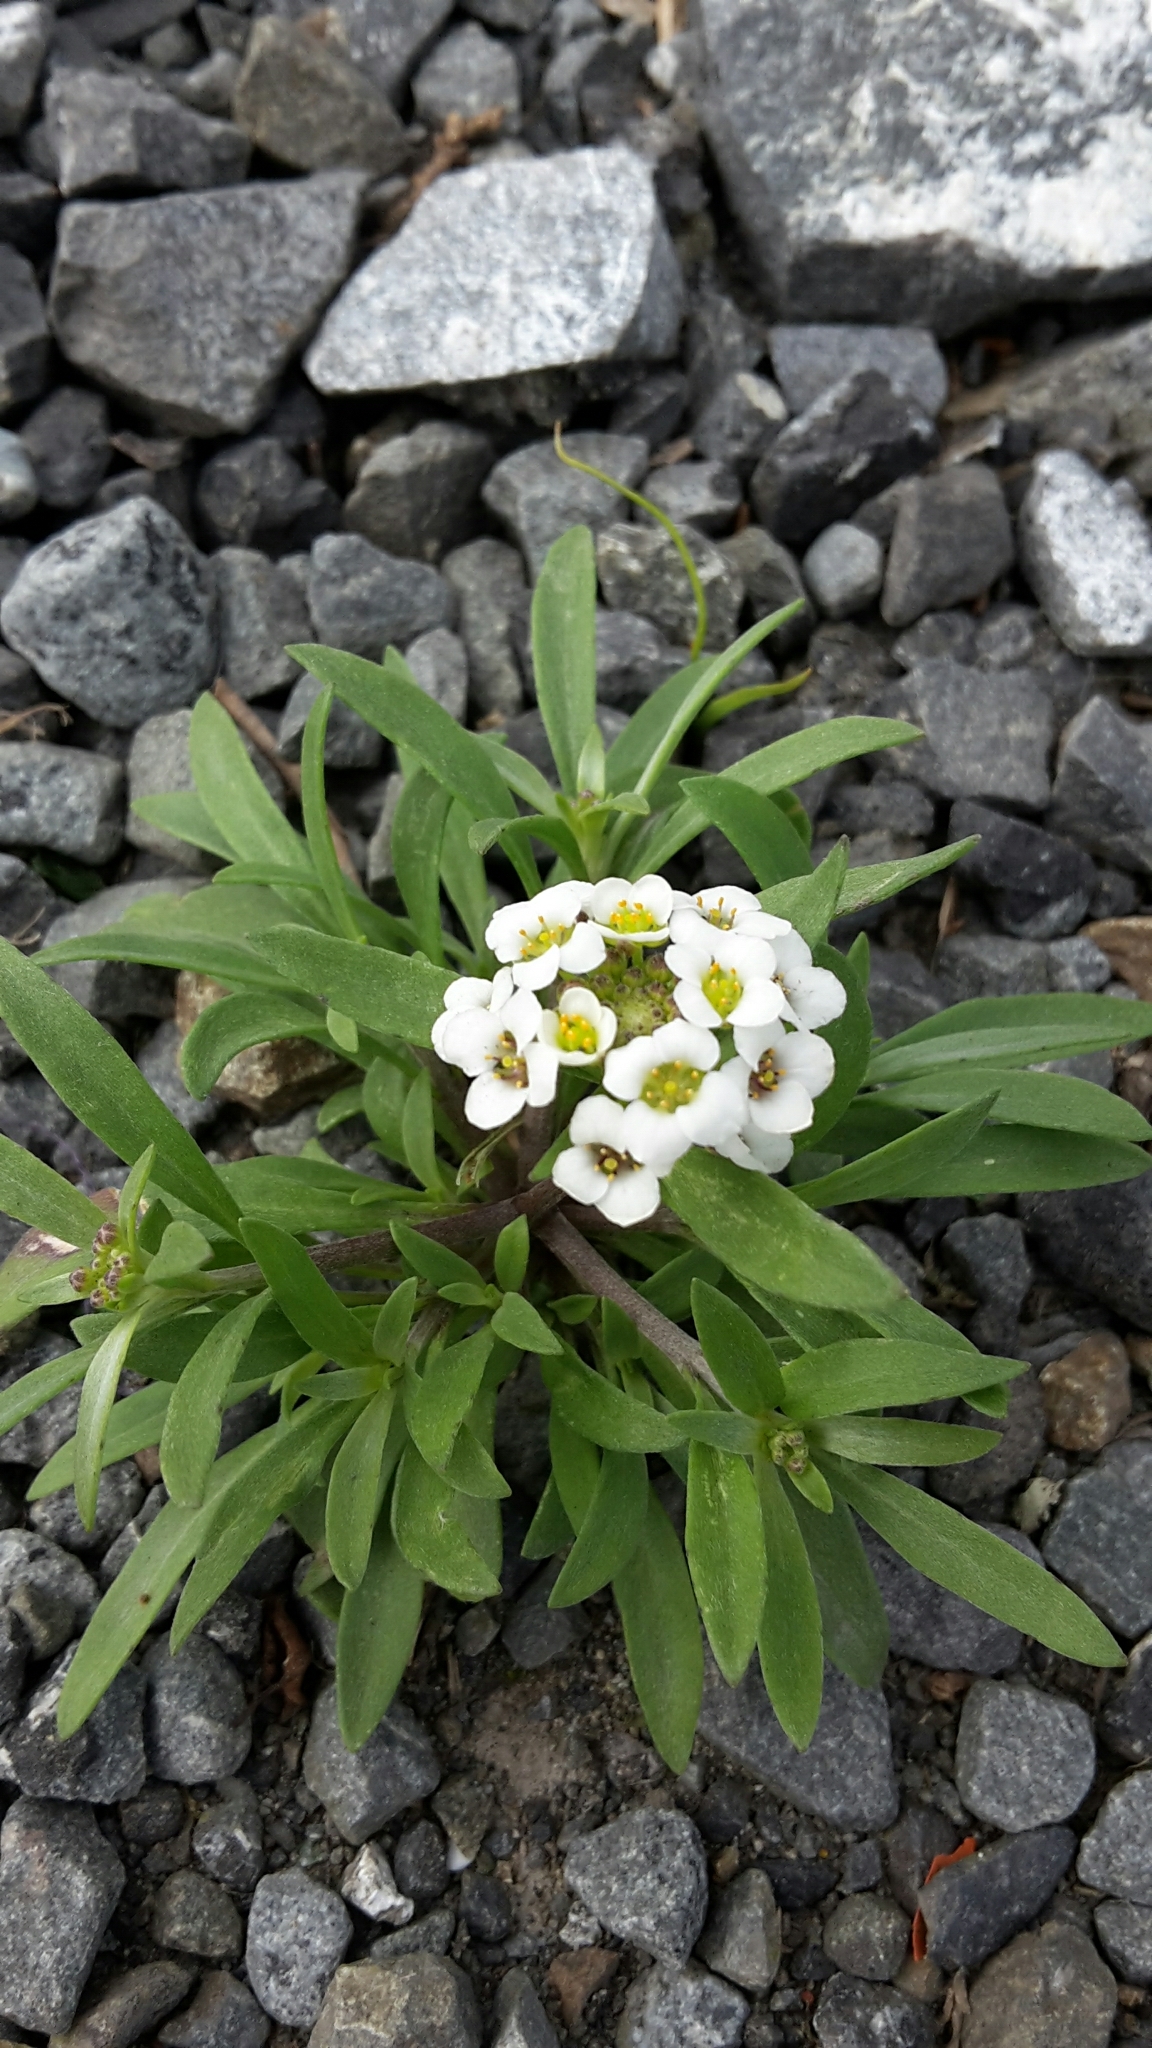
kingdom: Plantae
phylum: Tracheophyta
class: Magnoliopsida
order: Brassicales
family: Brassicaceae
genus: Lobularia
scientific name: Lobularia maritima
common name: Sweet alison
